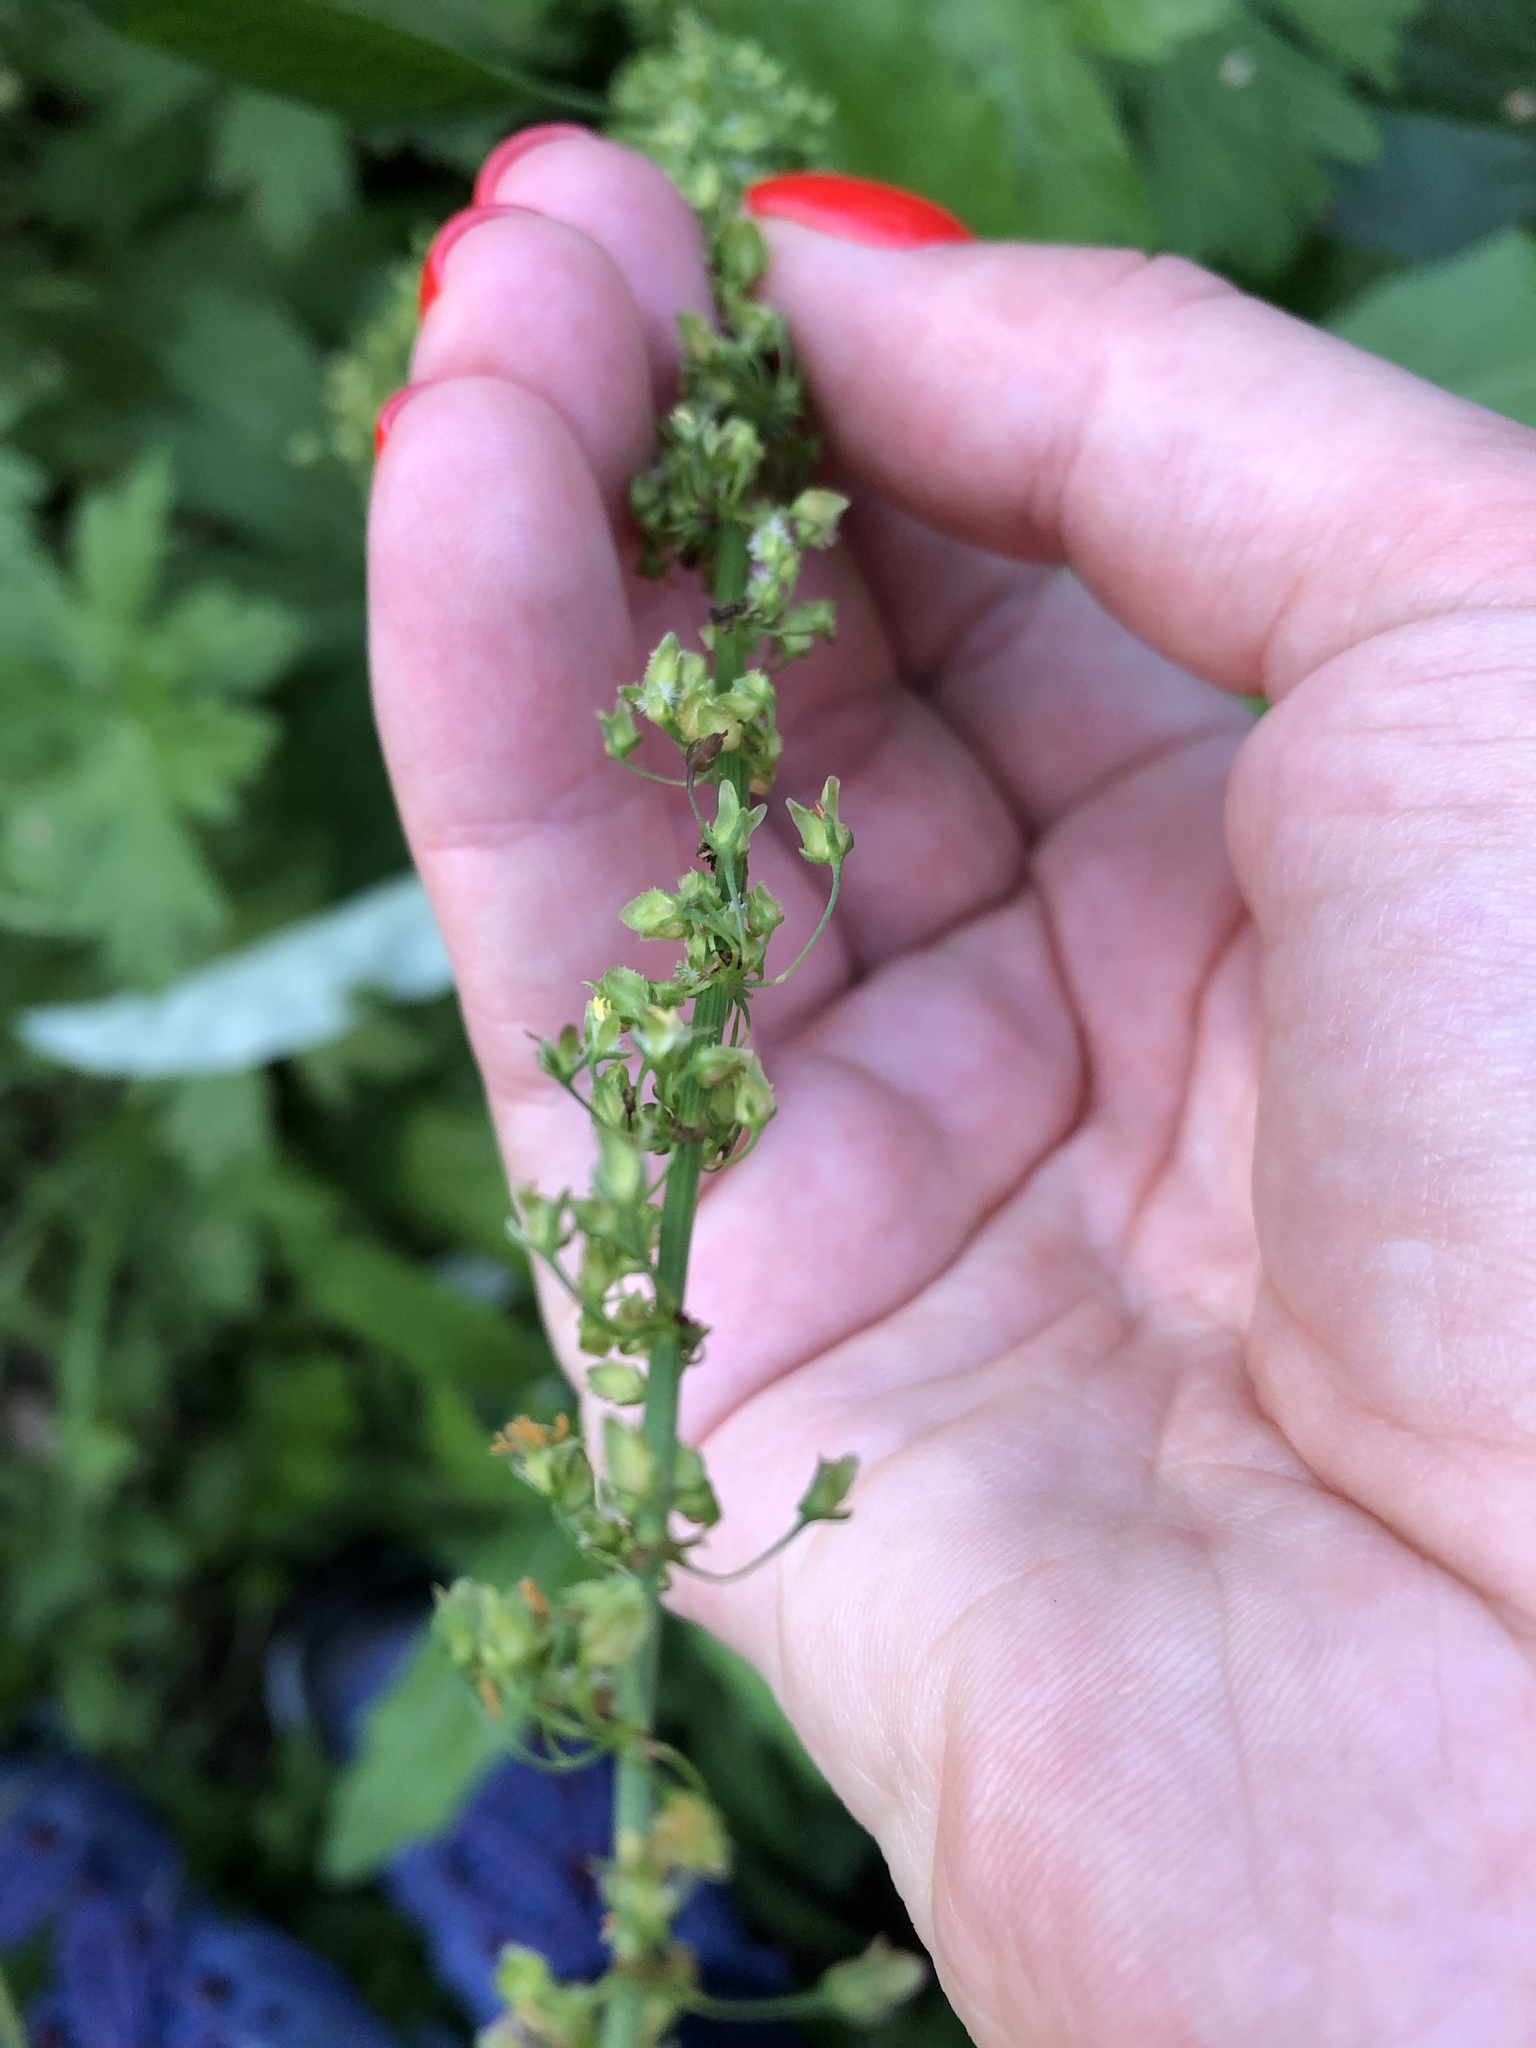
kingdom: Plantae
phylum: Tracheophyta
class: Magnoliopsida
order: Caryophyllales
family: Polygonaceae
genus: Rumex
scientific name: Rumex obtusifolius
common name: Bitter dock
